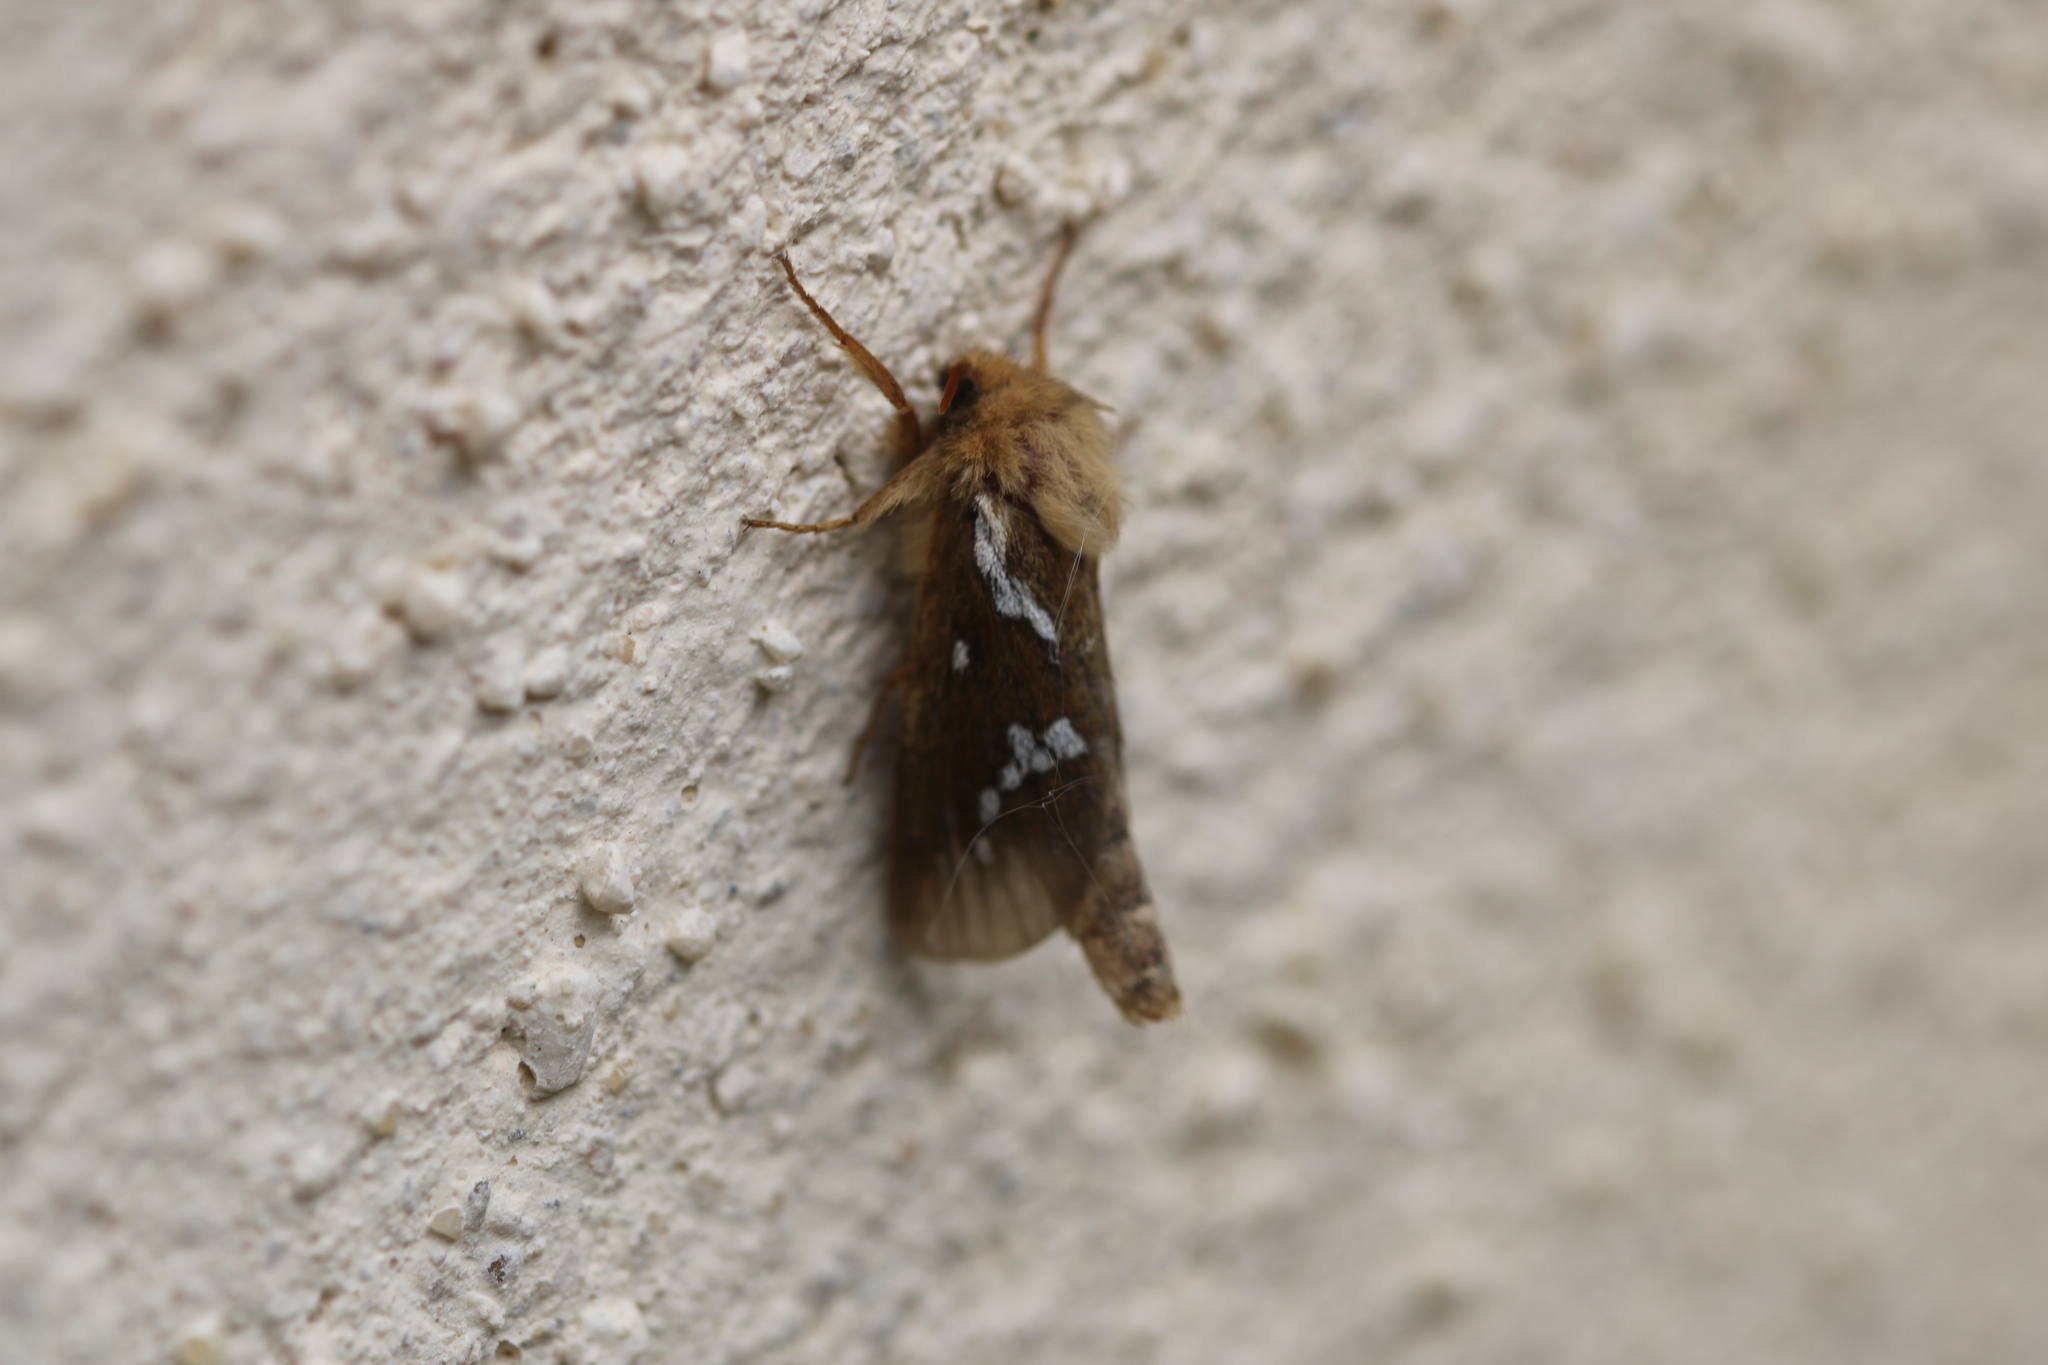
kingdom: Animalia
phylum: Arthropoda
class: Insecta
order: Lepidoptera
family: Hepialidae
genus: Korscheltellus
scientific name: Korscheltellus lupulina
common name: Common swift
